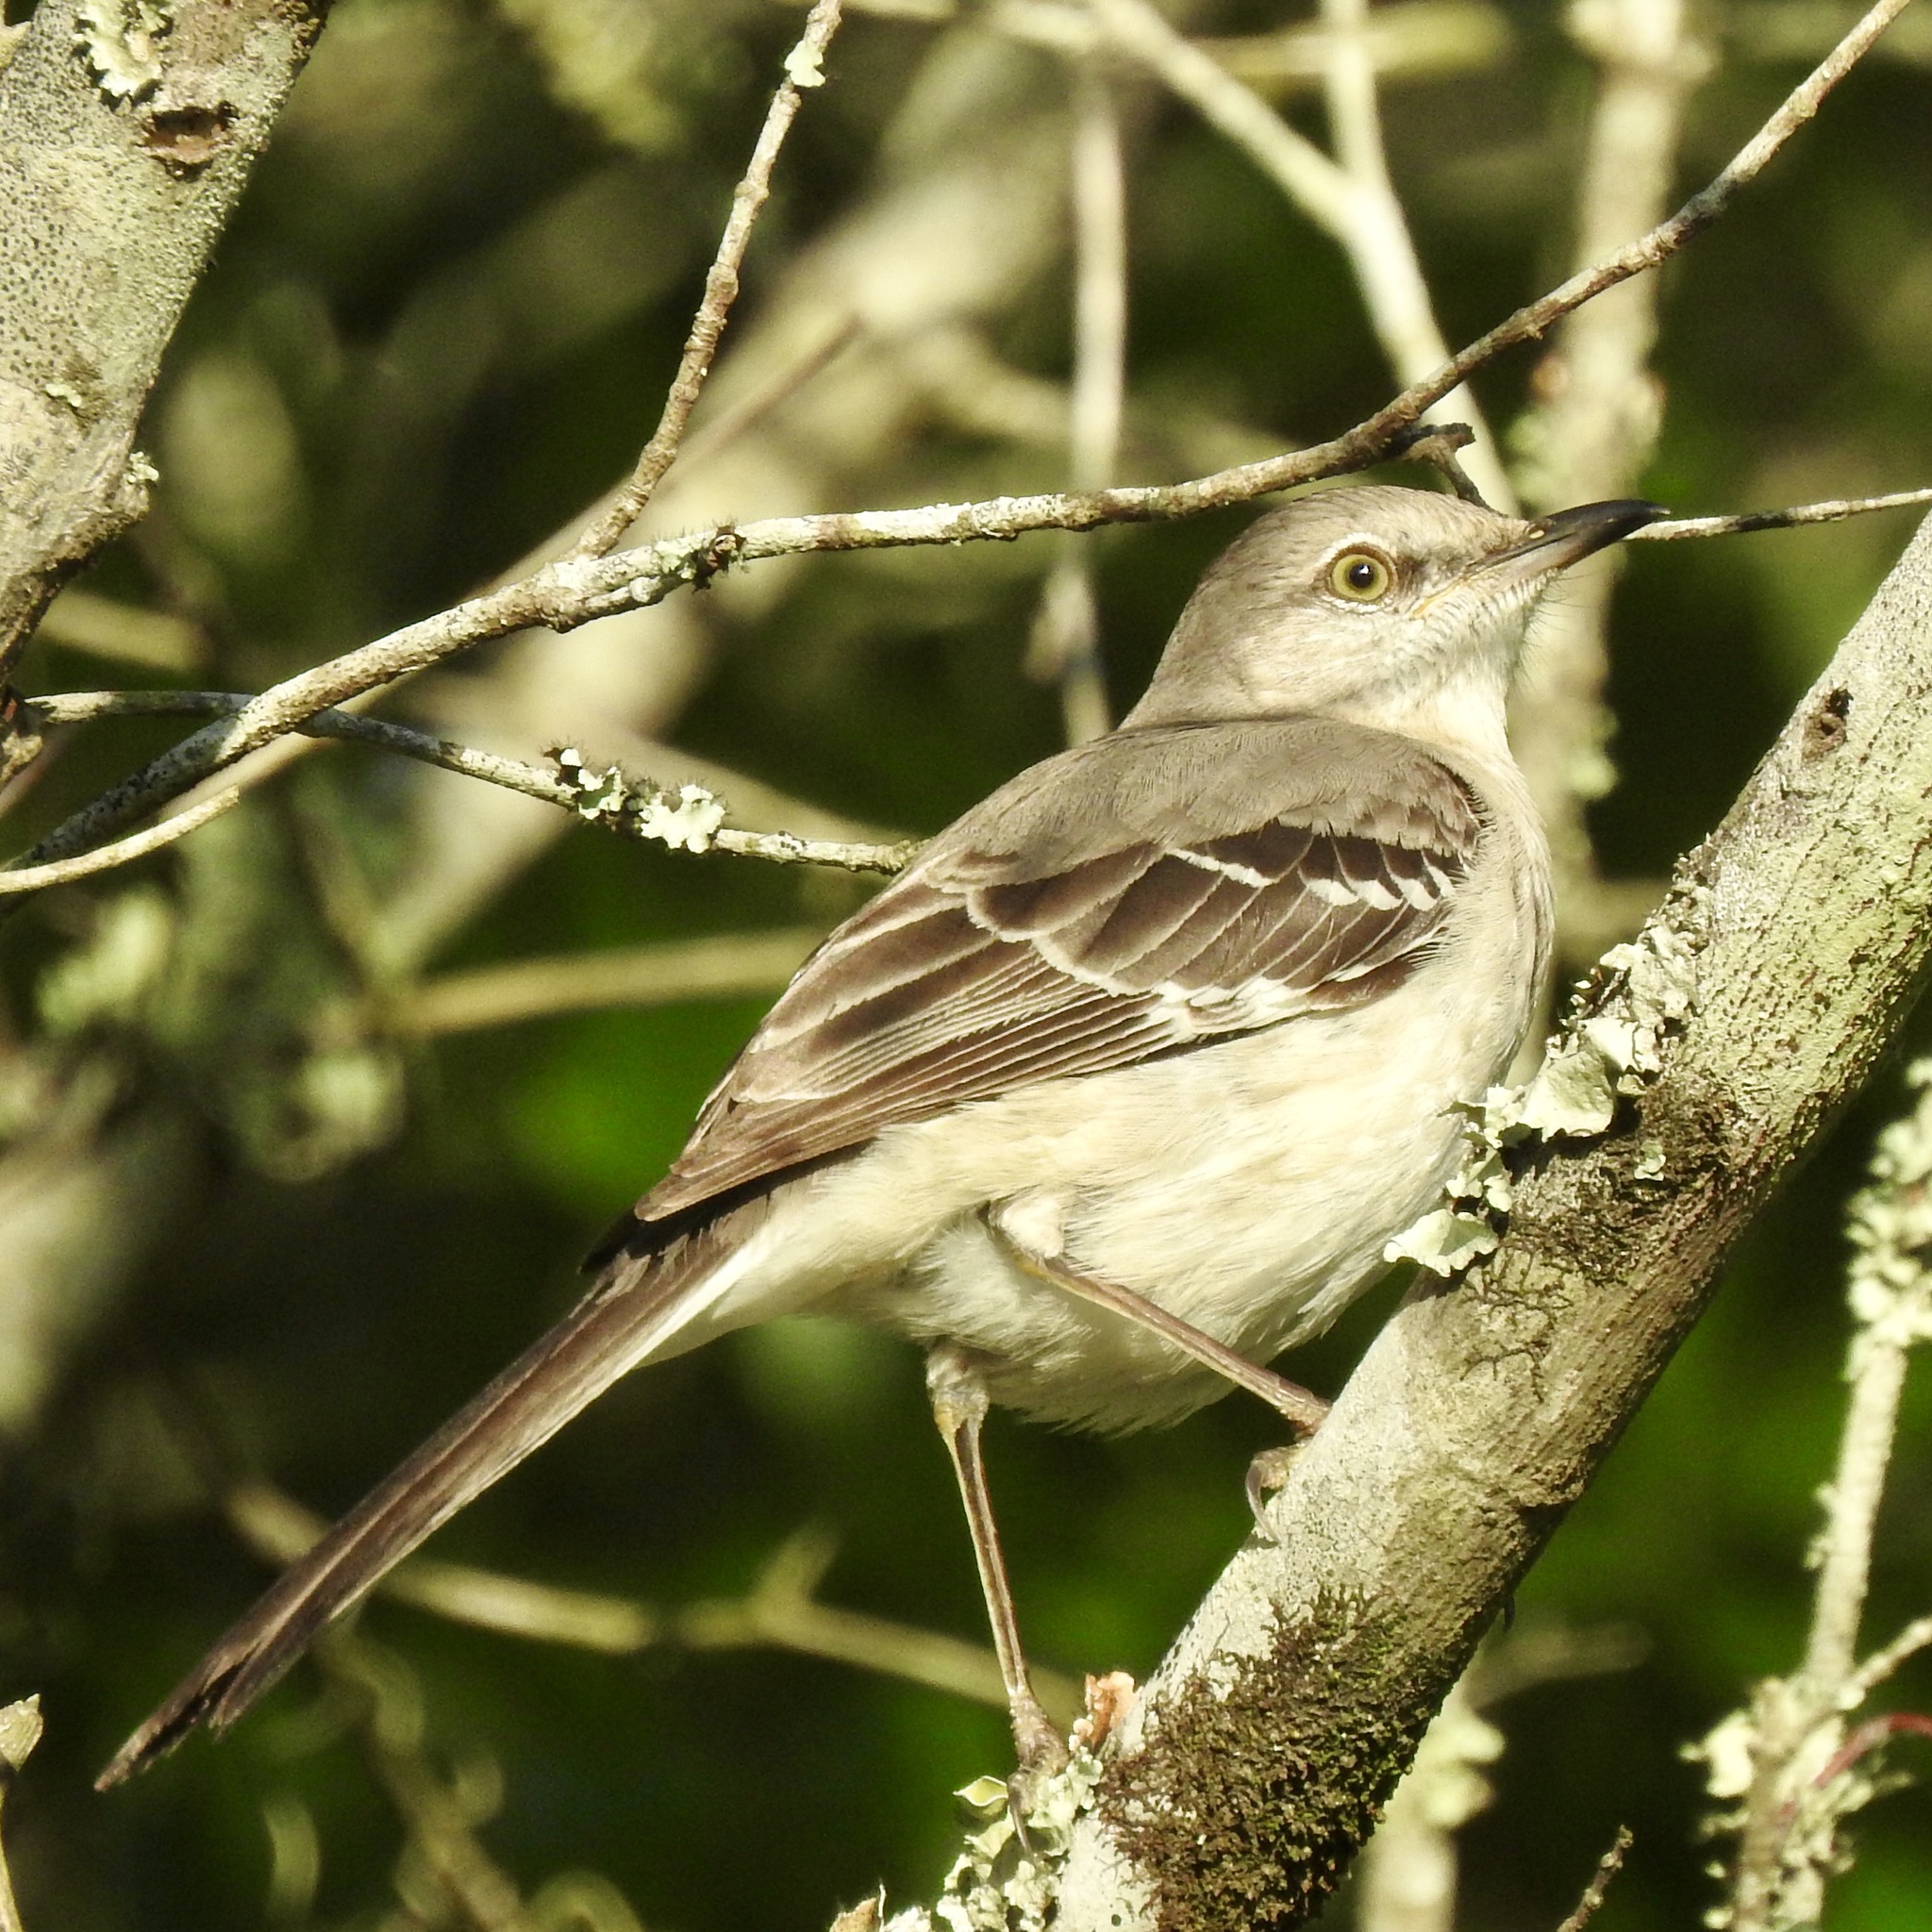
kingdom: Animalia
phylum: Chordata
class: Aves
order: Passeriformes
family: Mimidae
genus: Mimus
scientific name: Mimus polyglottos
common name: Northern mockingbird
